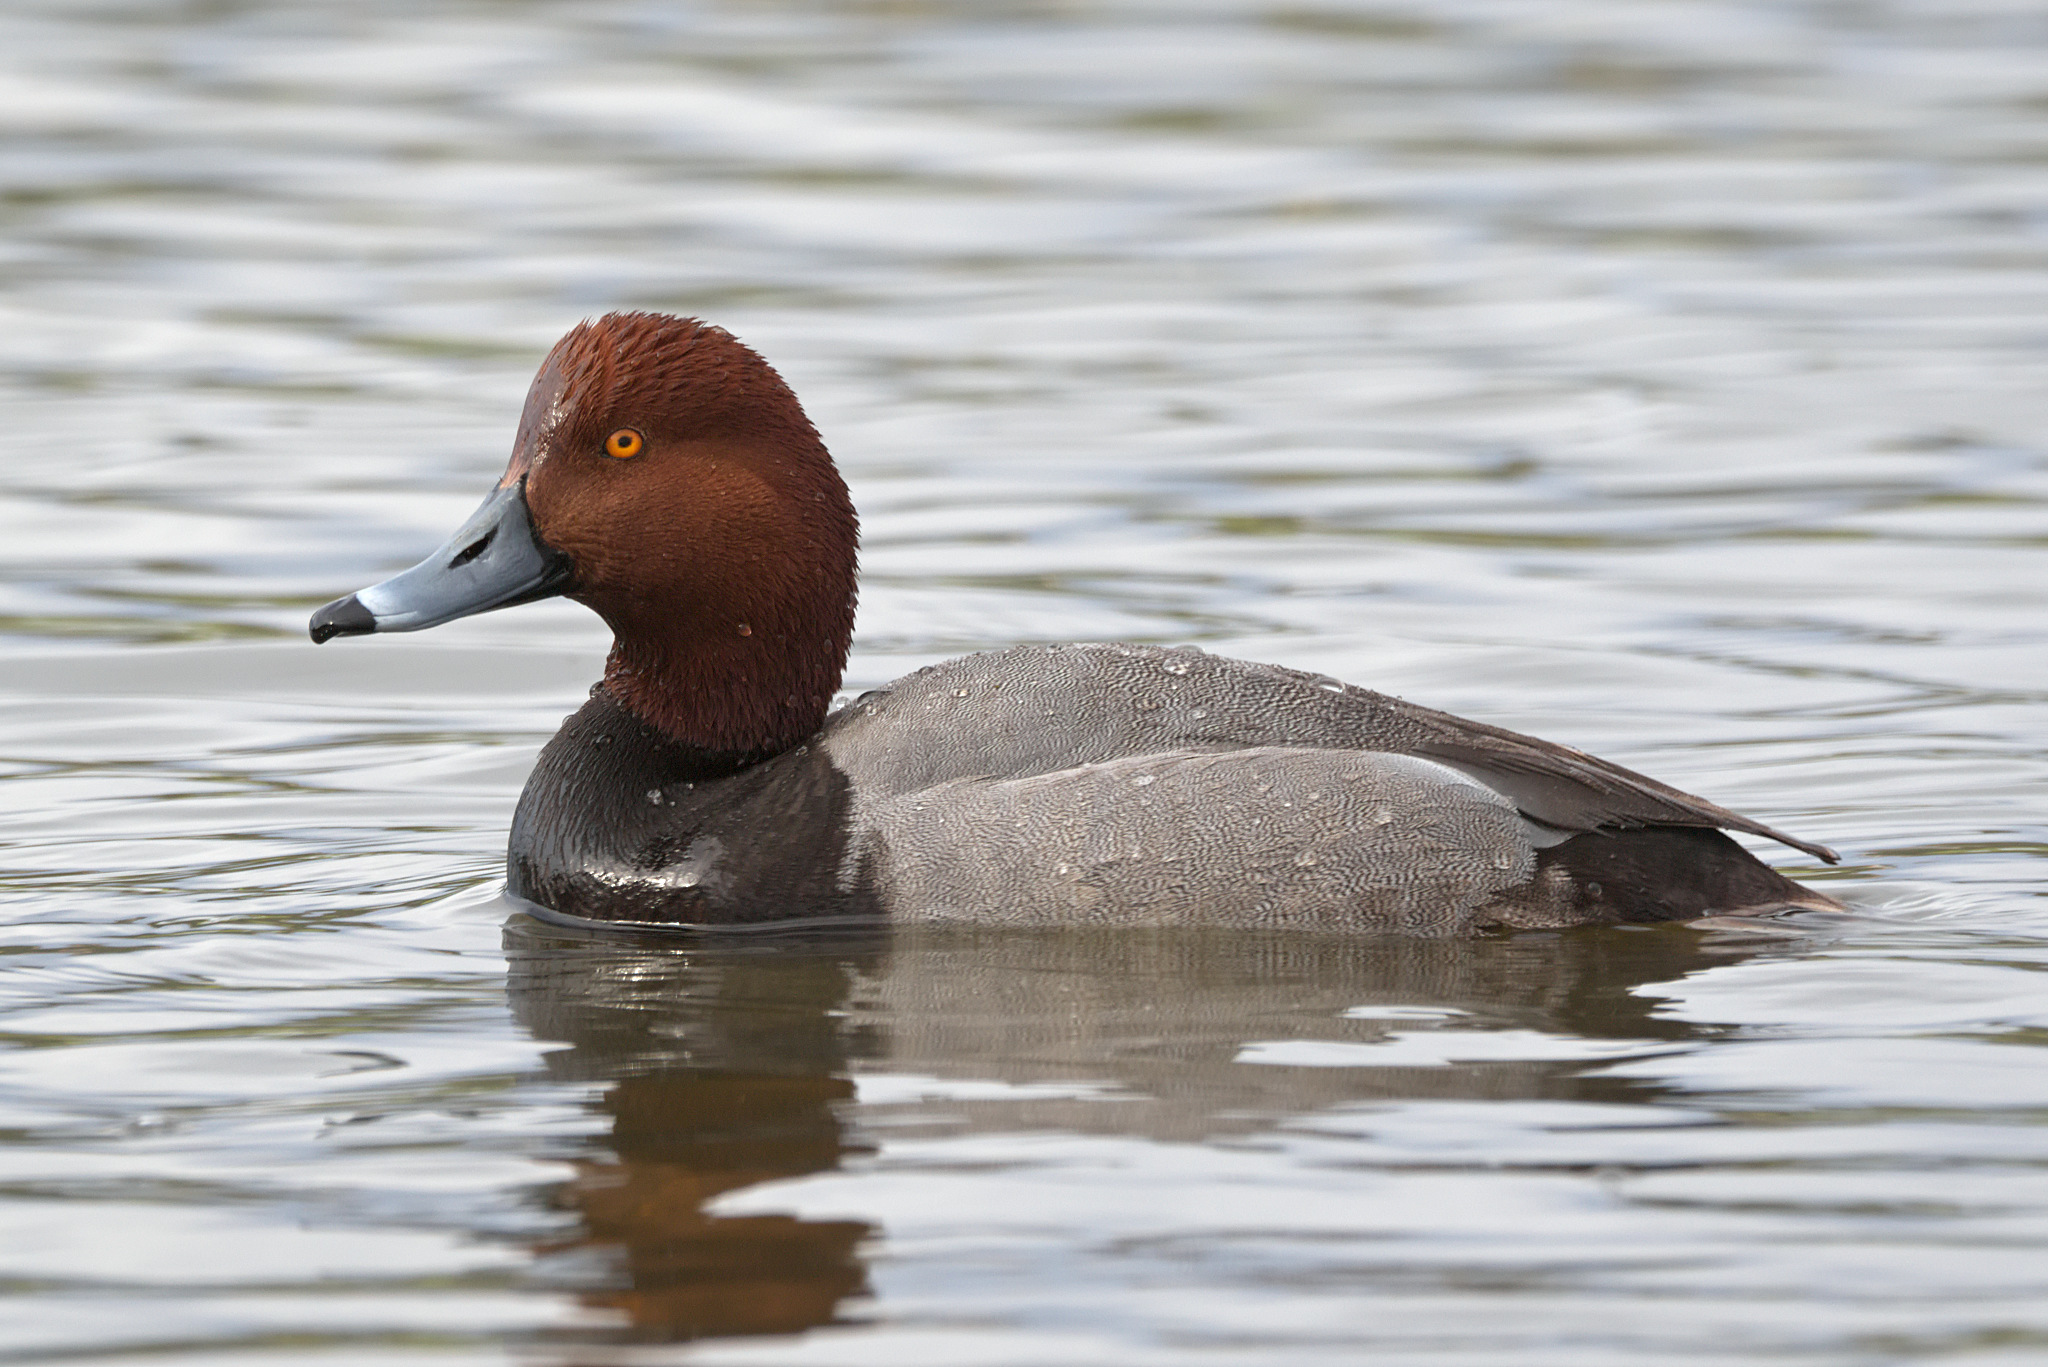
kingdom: Animalia
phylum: Chordata
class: Aves
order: Anseriformes
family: Anatidae
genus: Aythya
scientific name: Aythya americana
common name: Redhead
